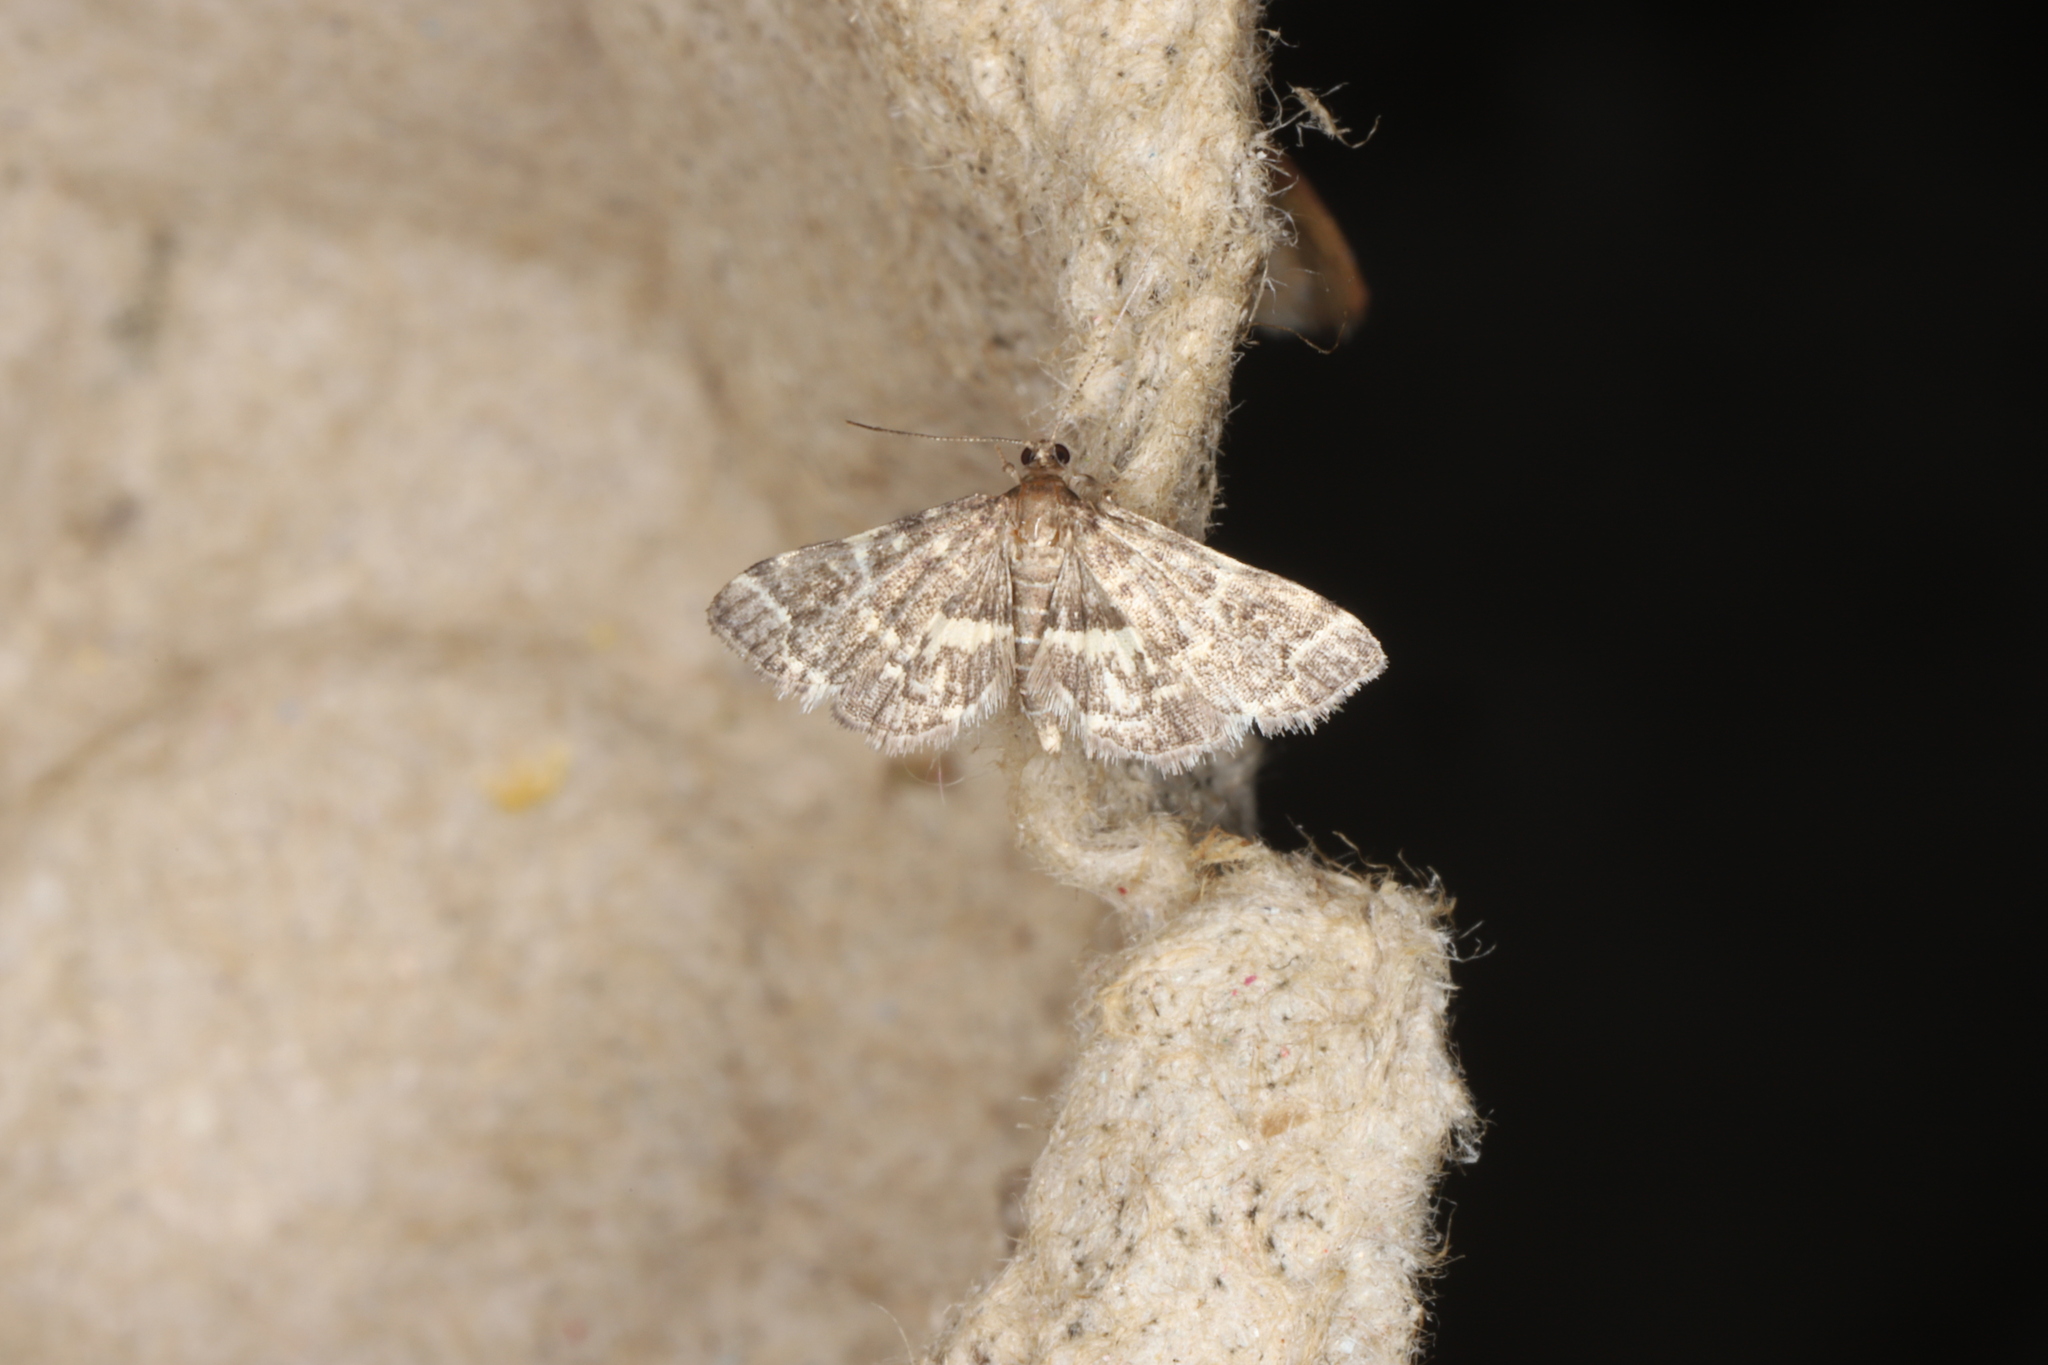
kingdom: Animalia
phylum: Arthropoda
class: Insecta
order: Lepidoptera
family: Crambidae
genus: Anageshna
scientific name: Anageshna primordialis
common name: Yellow-spotted webworm moth
